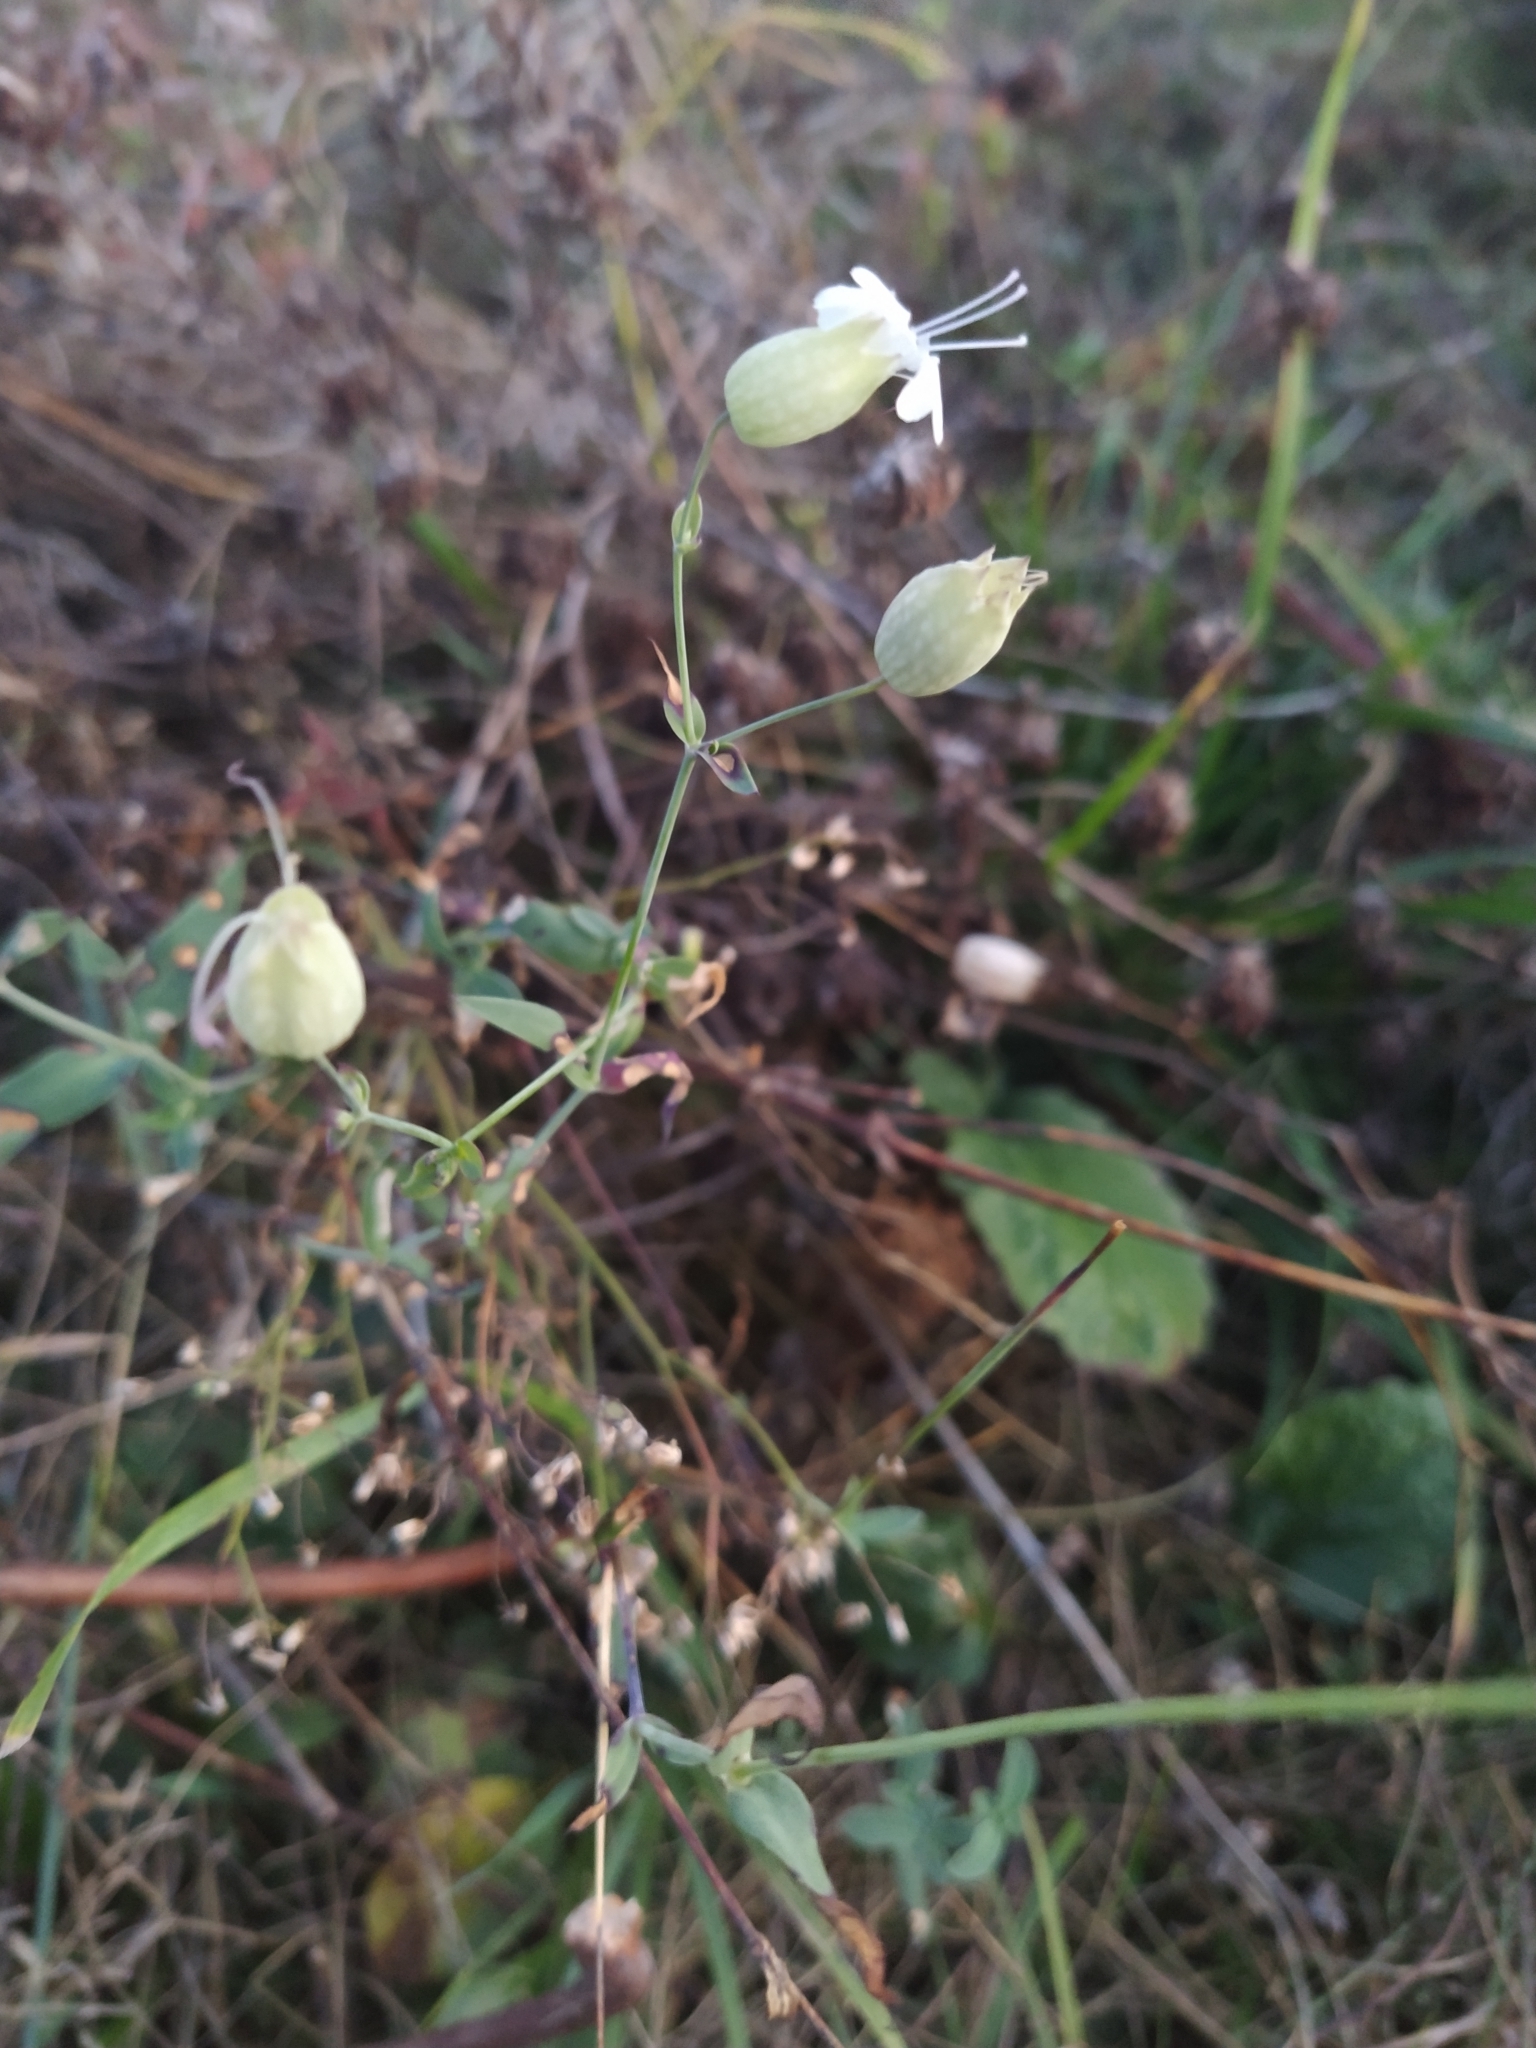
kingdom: Plantae
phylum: Tracheophyta
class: Magnoliopsida
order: Caryophyllales
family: Caryophyllaceae
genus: Silene
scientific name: Silene vulgaris
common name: Bladder campion
